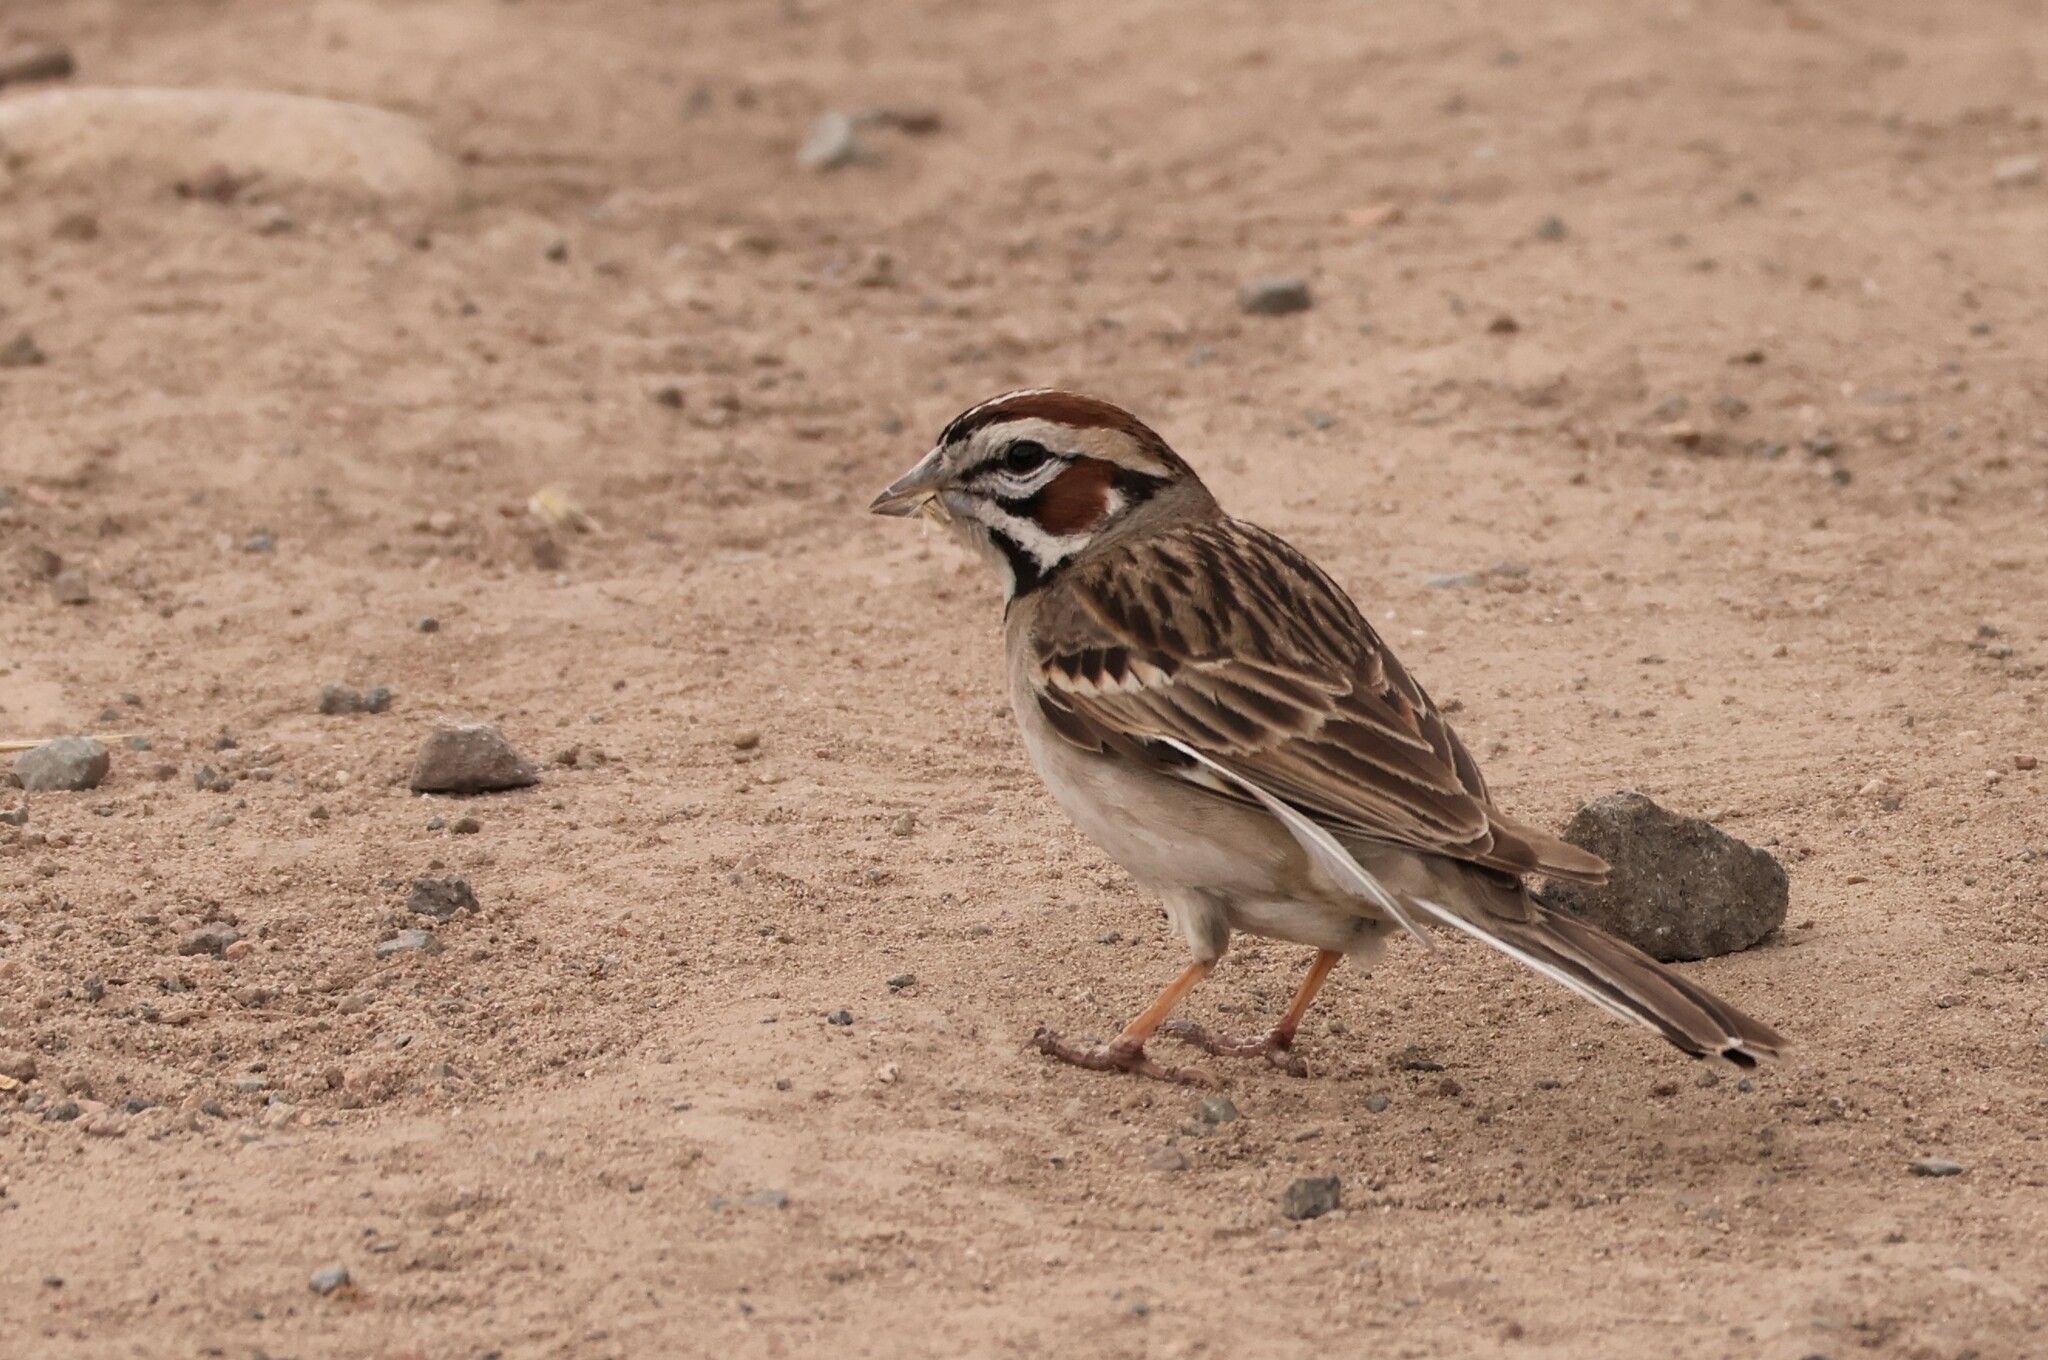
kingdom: Animalia
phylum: Chordata
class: Aves
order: Passeriformes
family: Passerellidae
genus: Chondestes
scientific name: Chondestes grammacus
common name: Lark sparrow
